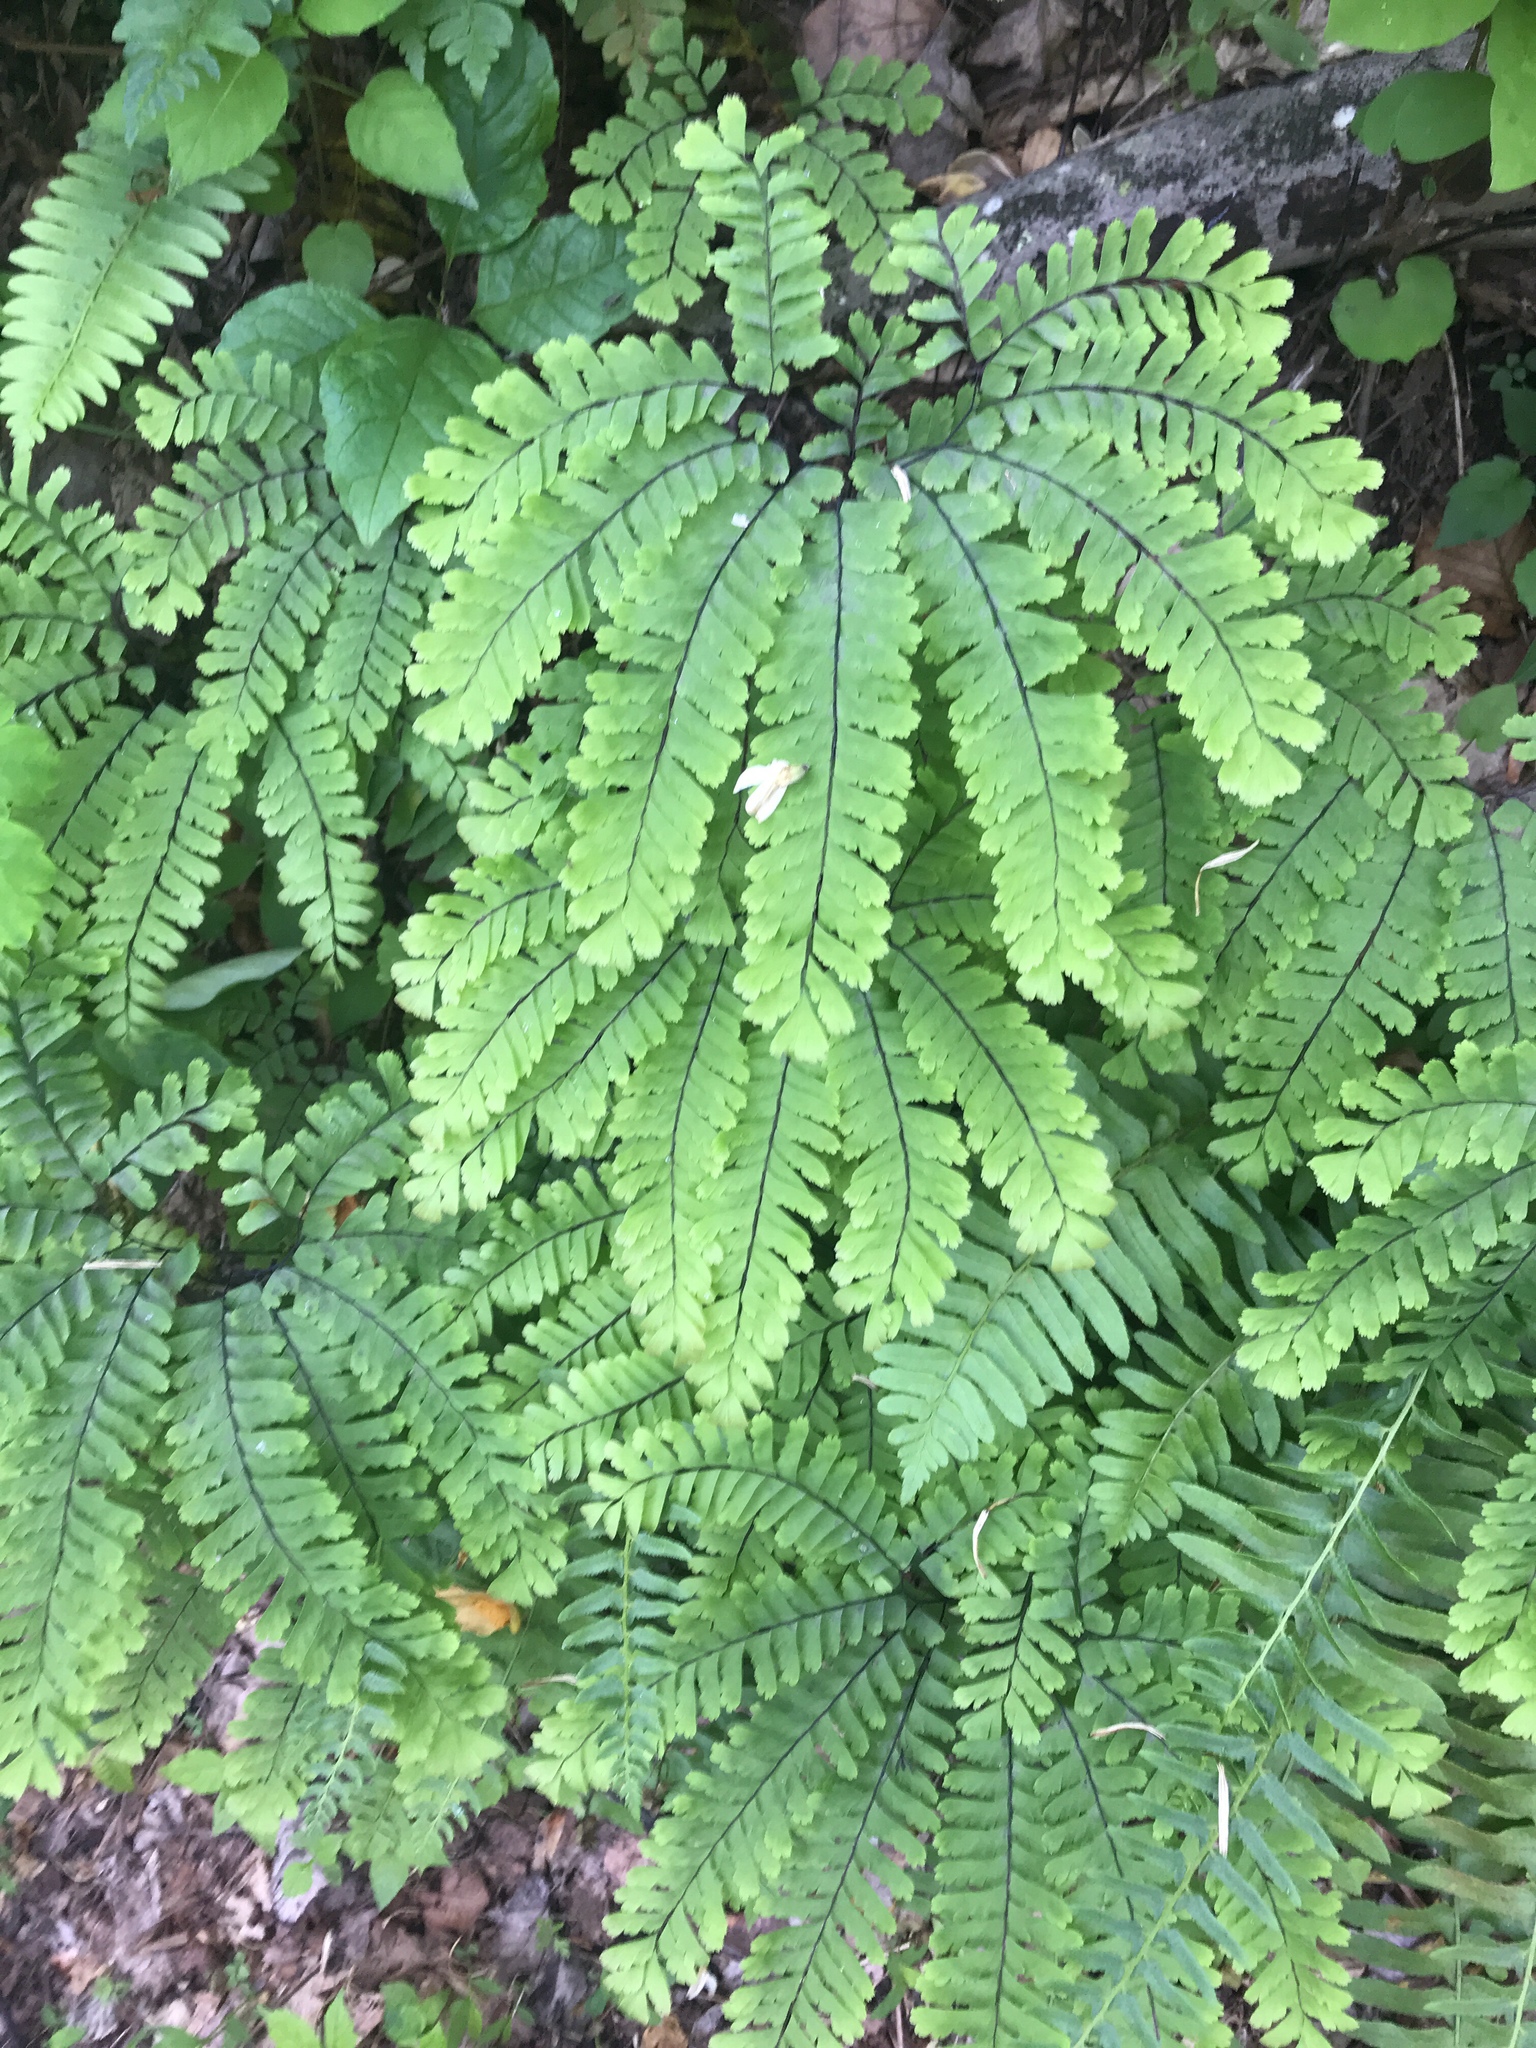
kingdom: Plantae
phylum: Tracheophyta
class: Polypodiopsida
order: Polypodiales
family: Pteridaceae
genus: Adiantum
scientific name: Adiantum pedatum
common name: Five-finger fern
